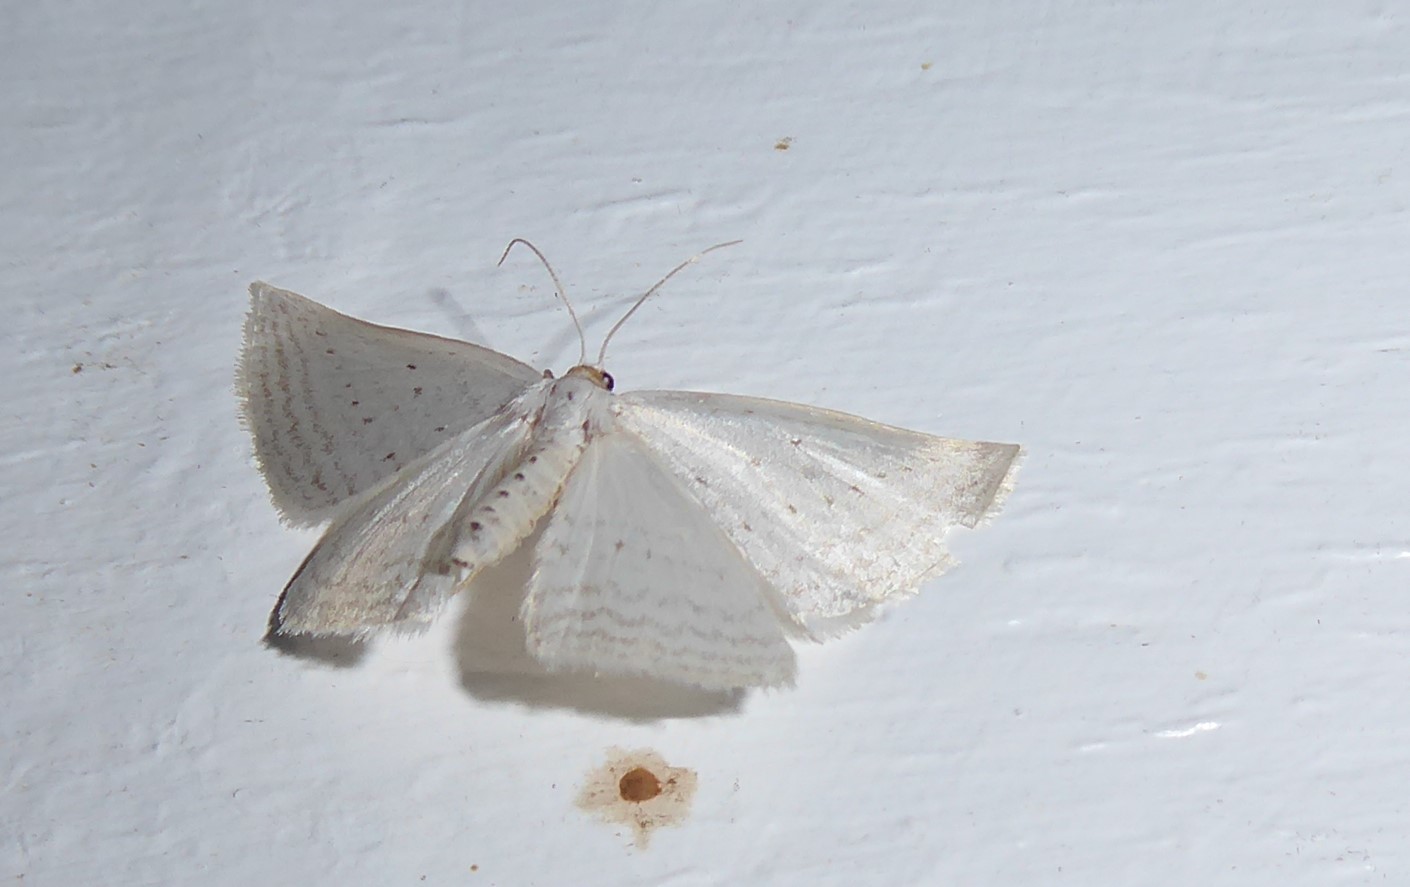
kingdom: Animalia
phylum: Arthropoda
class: Insecta
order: Lepidoptera
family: Geometridae
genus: Orthoclydon
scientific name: Orthoclydon praefectata
